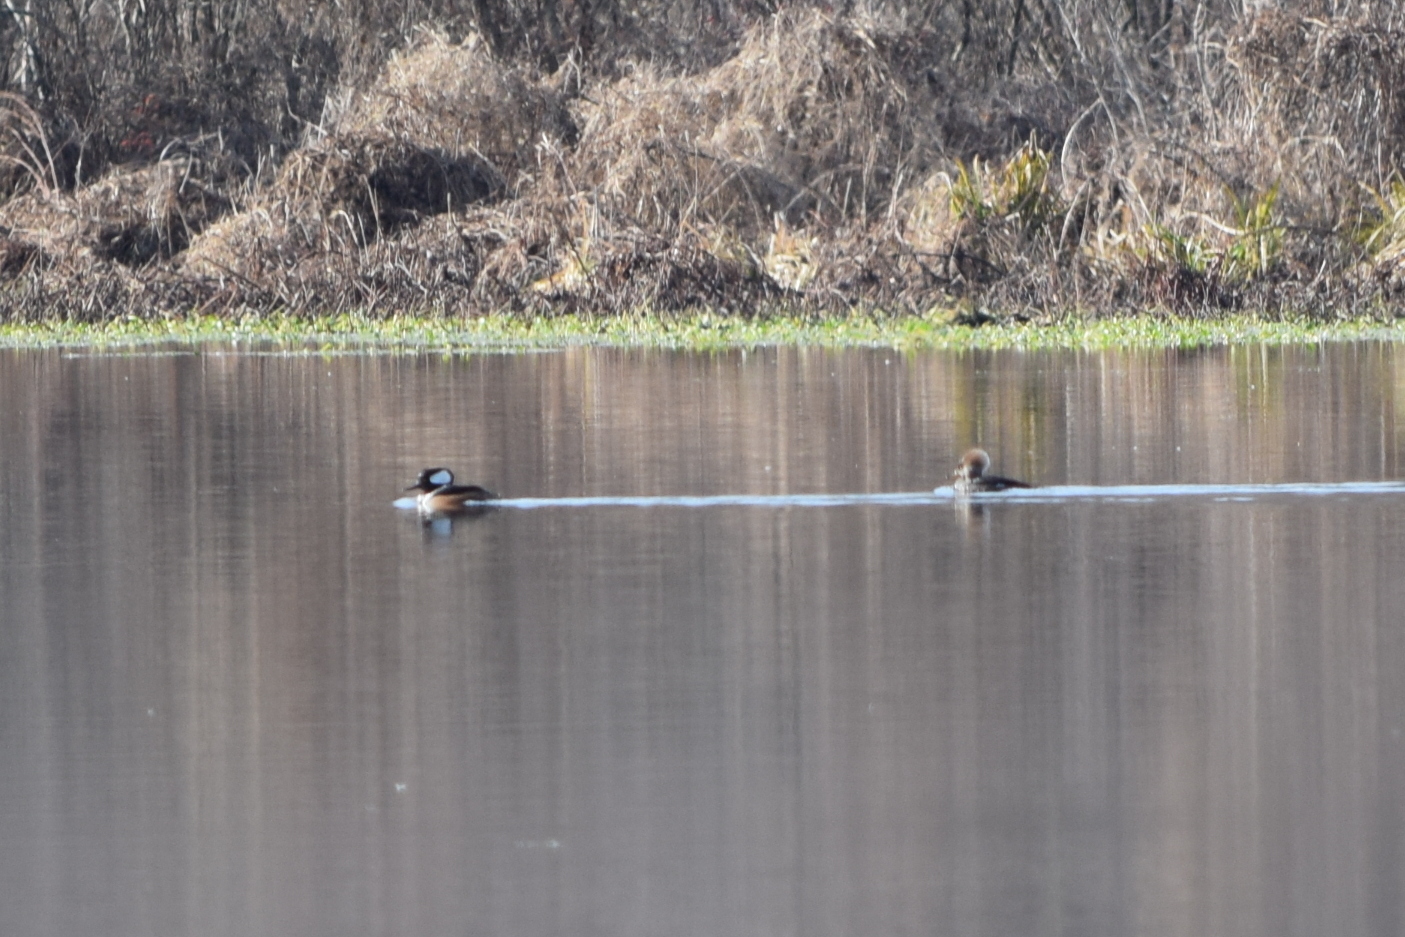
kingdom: Animalia
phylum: Chordata
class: Aves
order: Anseriformes
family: Anatidae
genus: Lophodytes
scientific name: Lophodytes cucullatus
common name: Hooded merganser
